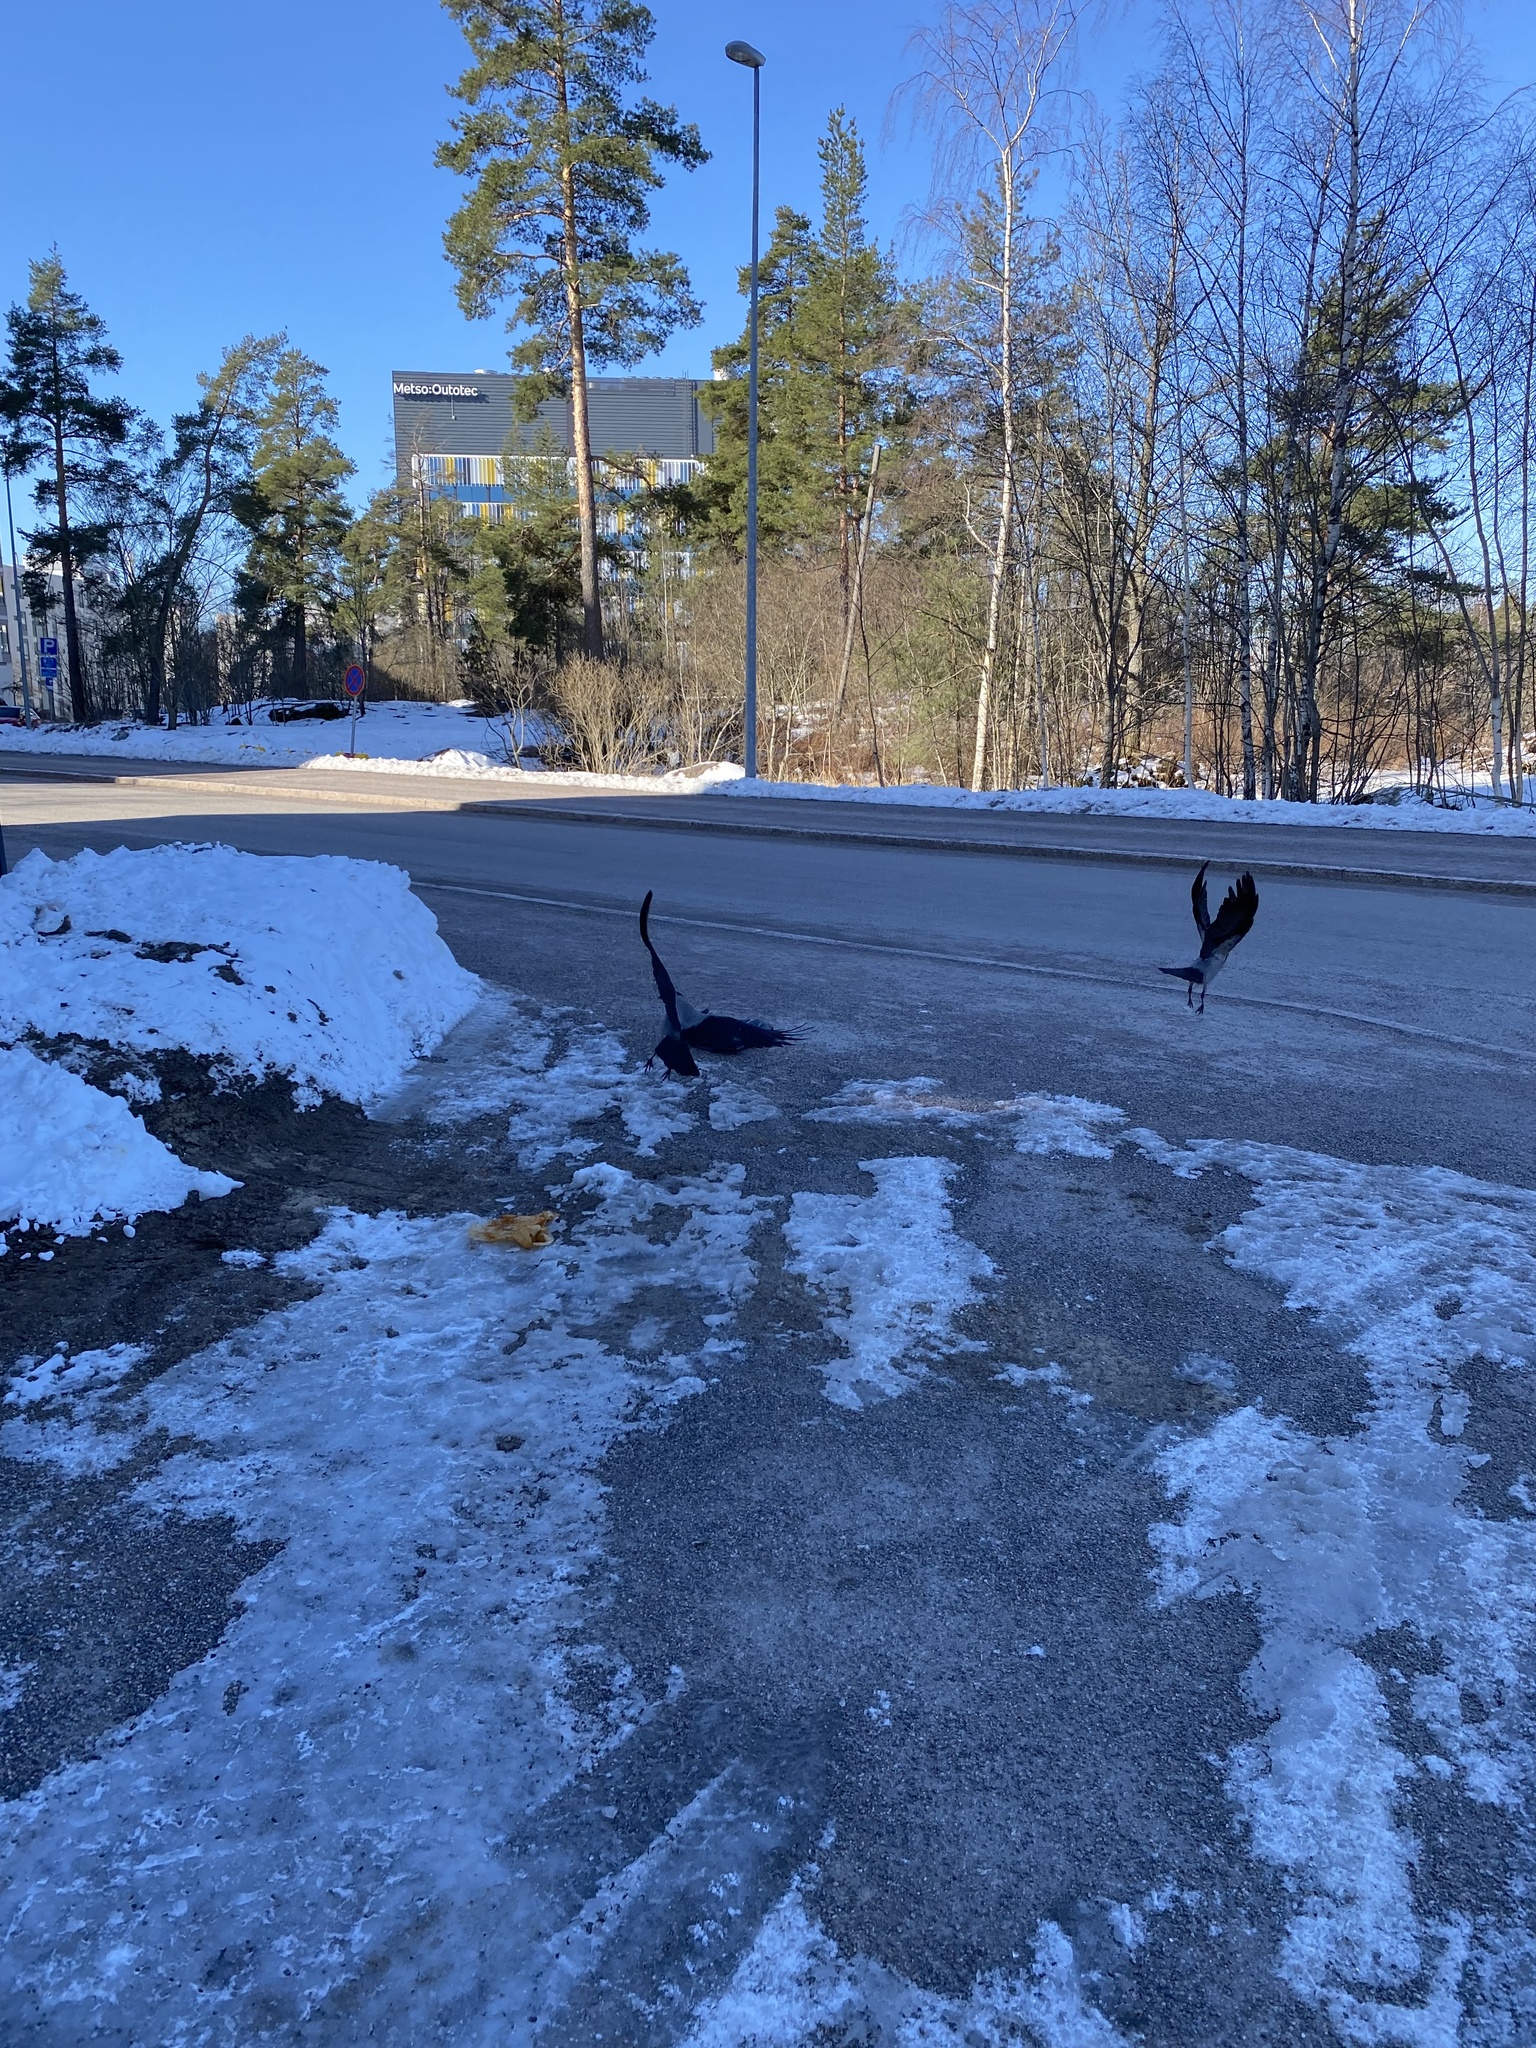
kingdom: Animalia
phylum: Chordata
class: Aves
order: Passeriformes
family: Corvidae
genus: Corvus
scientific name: Corvus cornix
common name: Hooded crow
